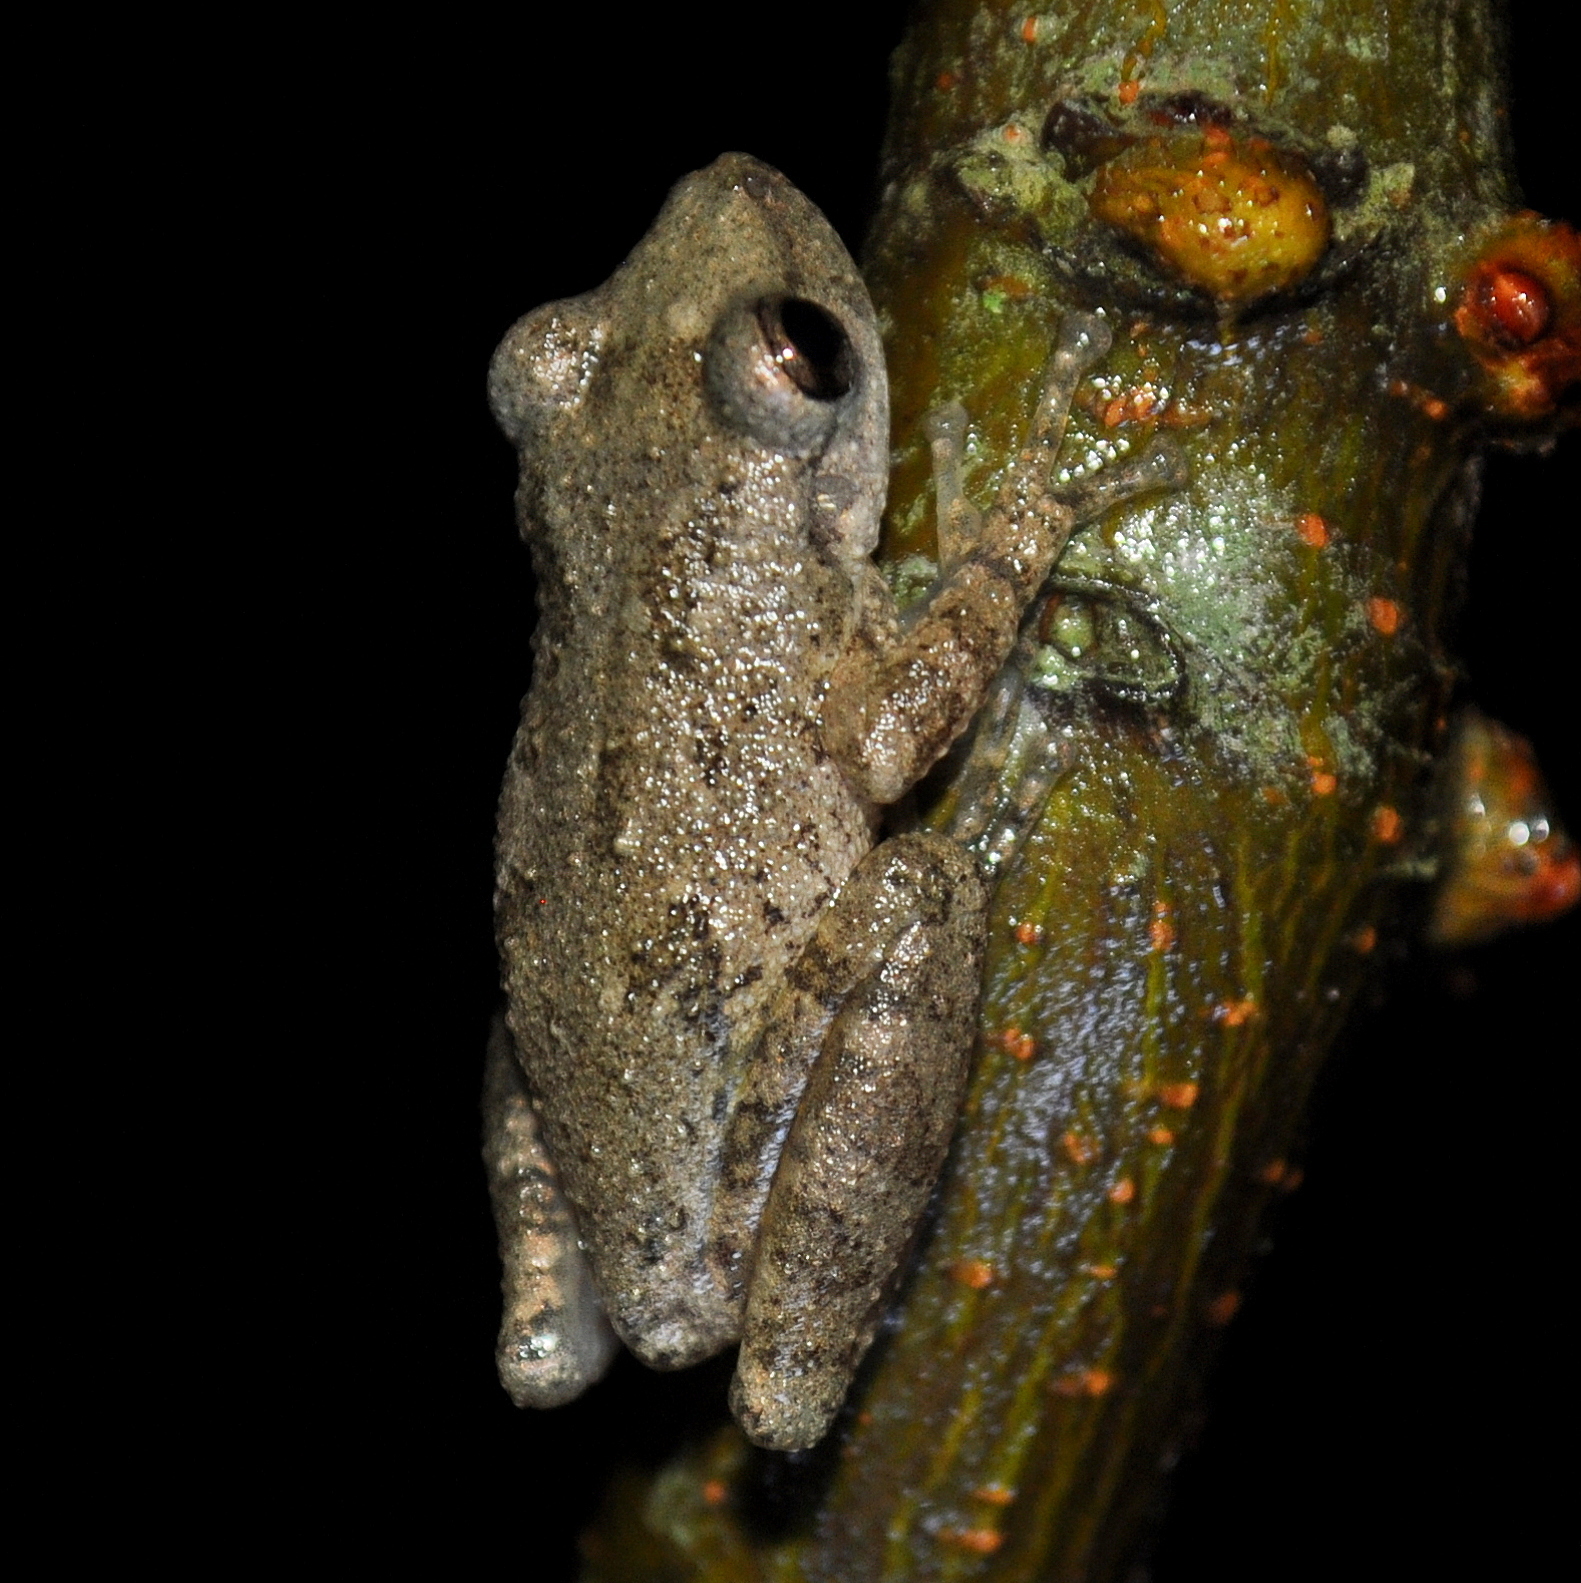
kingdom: Animalia
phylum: Chordata
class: Amphibia
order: Anura
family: Hylidae
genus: Scinax
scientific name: Scinax granulatus
